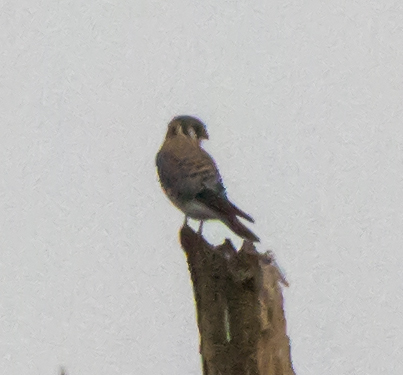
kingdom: Animalia
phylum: Chordata
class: Aves
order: Falconiformes
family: Falconidae
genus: Falco
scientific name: Falco sparverius
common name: American kestrel
